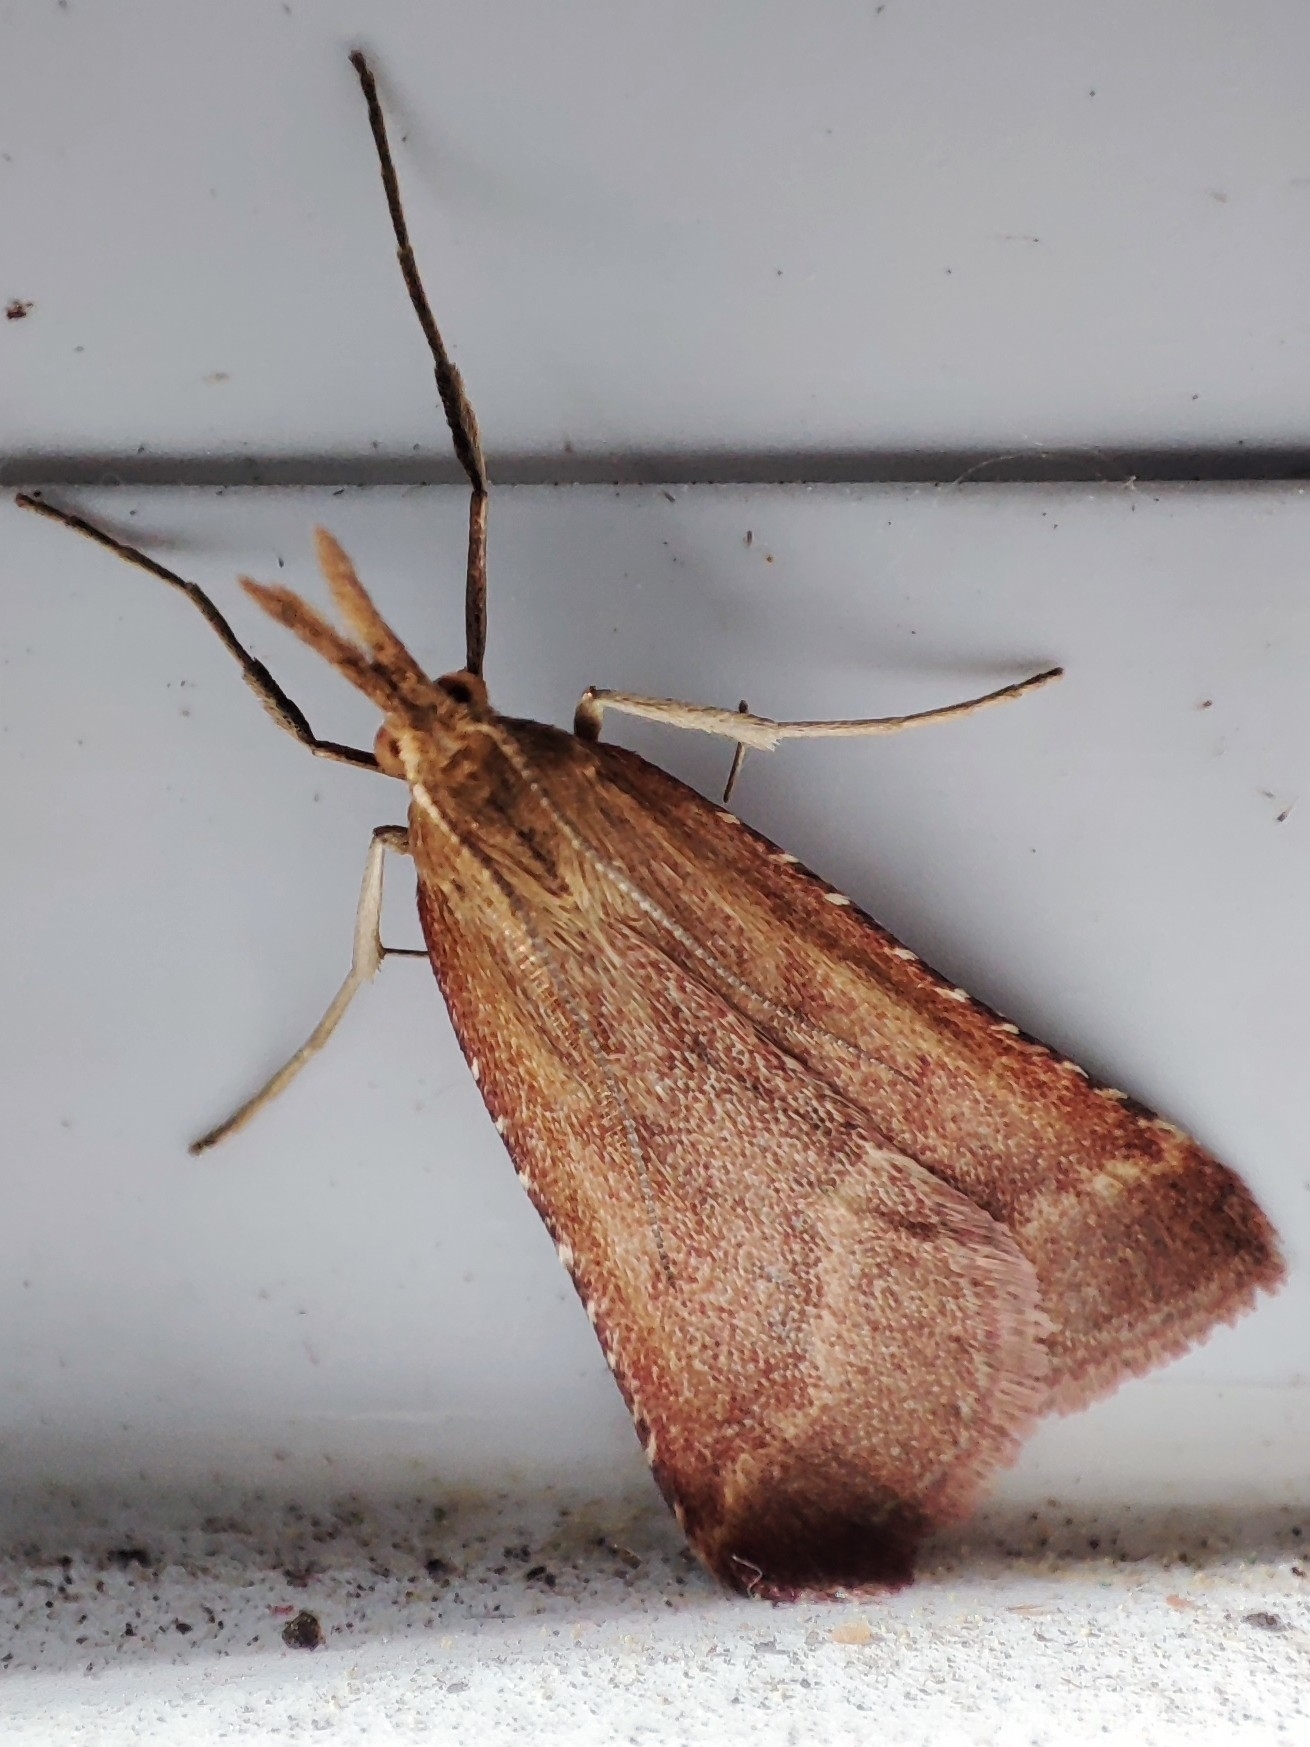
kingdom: Animalia
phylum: Arthropoda
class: Insecta
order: Lepidoptera
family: Pyralidae
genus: Synaphe
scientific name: Synaphe punctalis
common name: Long-legged tabby
